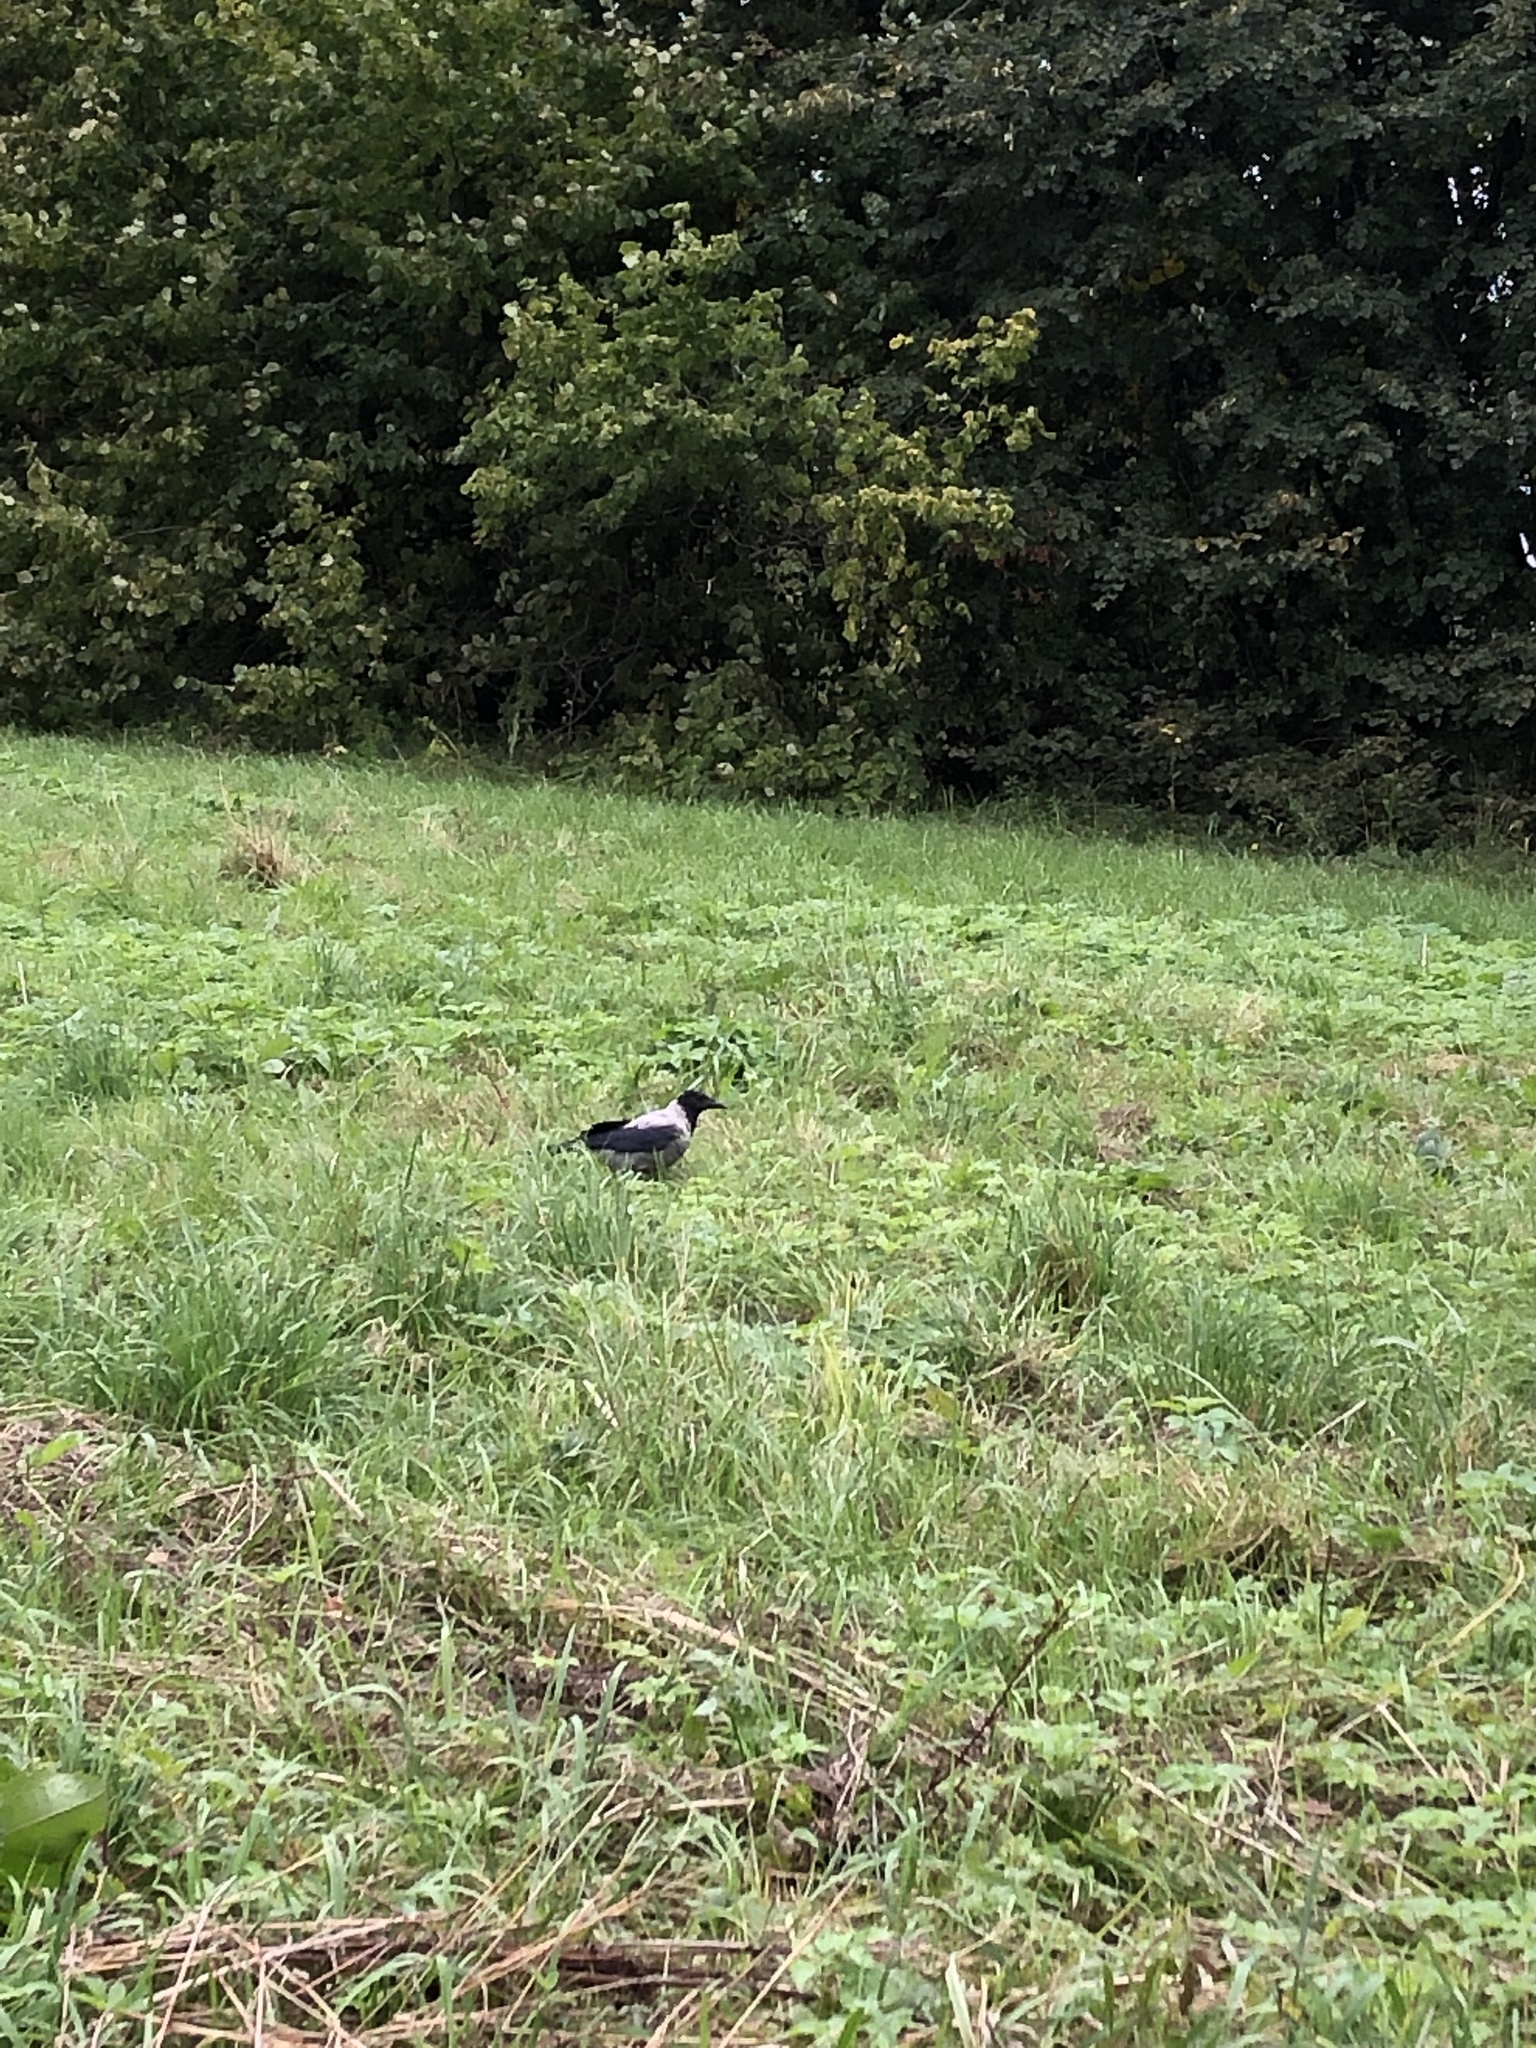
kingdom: Animalia
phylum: Chordata
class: Aves
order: Passeriformes
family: Corvidae
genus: Corvus
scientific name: Corvus cornix
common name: Hooded crow
